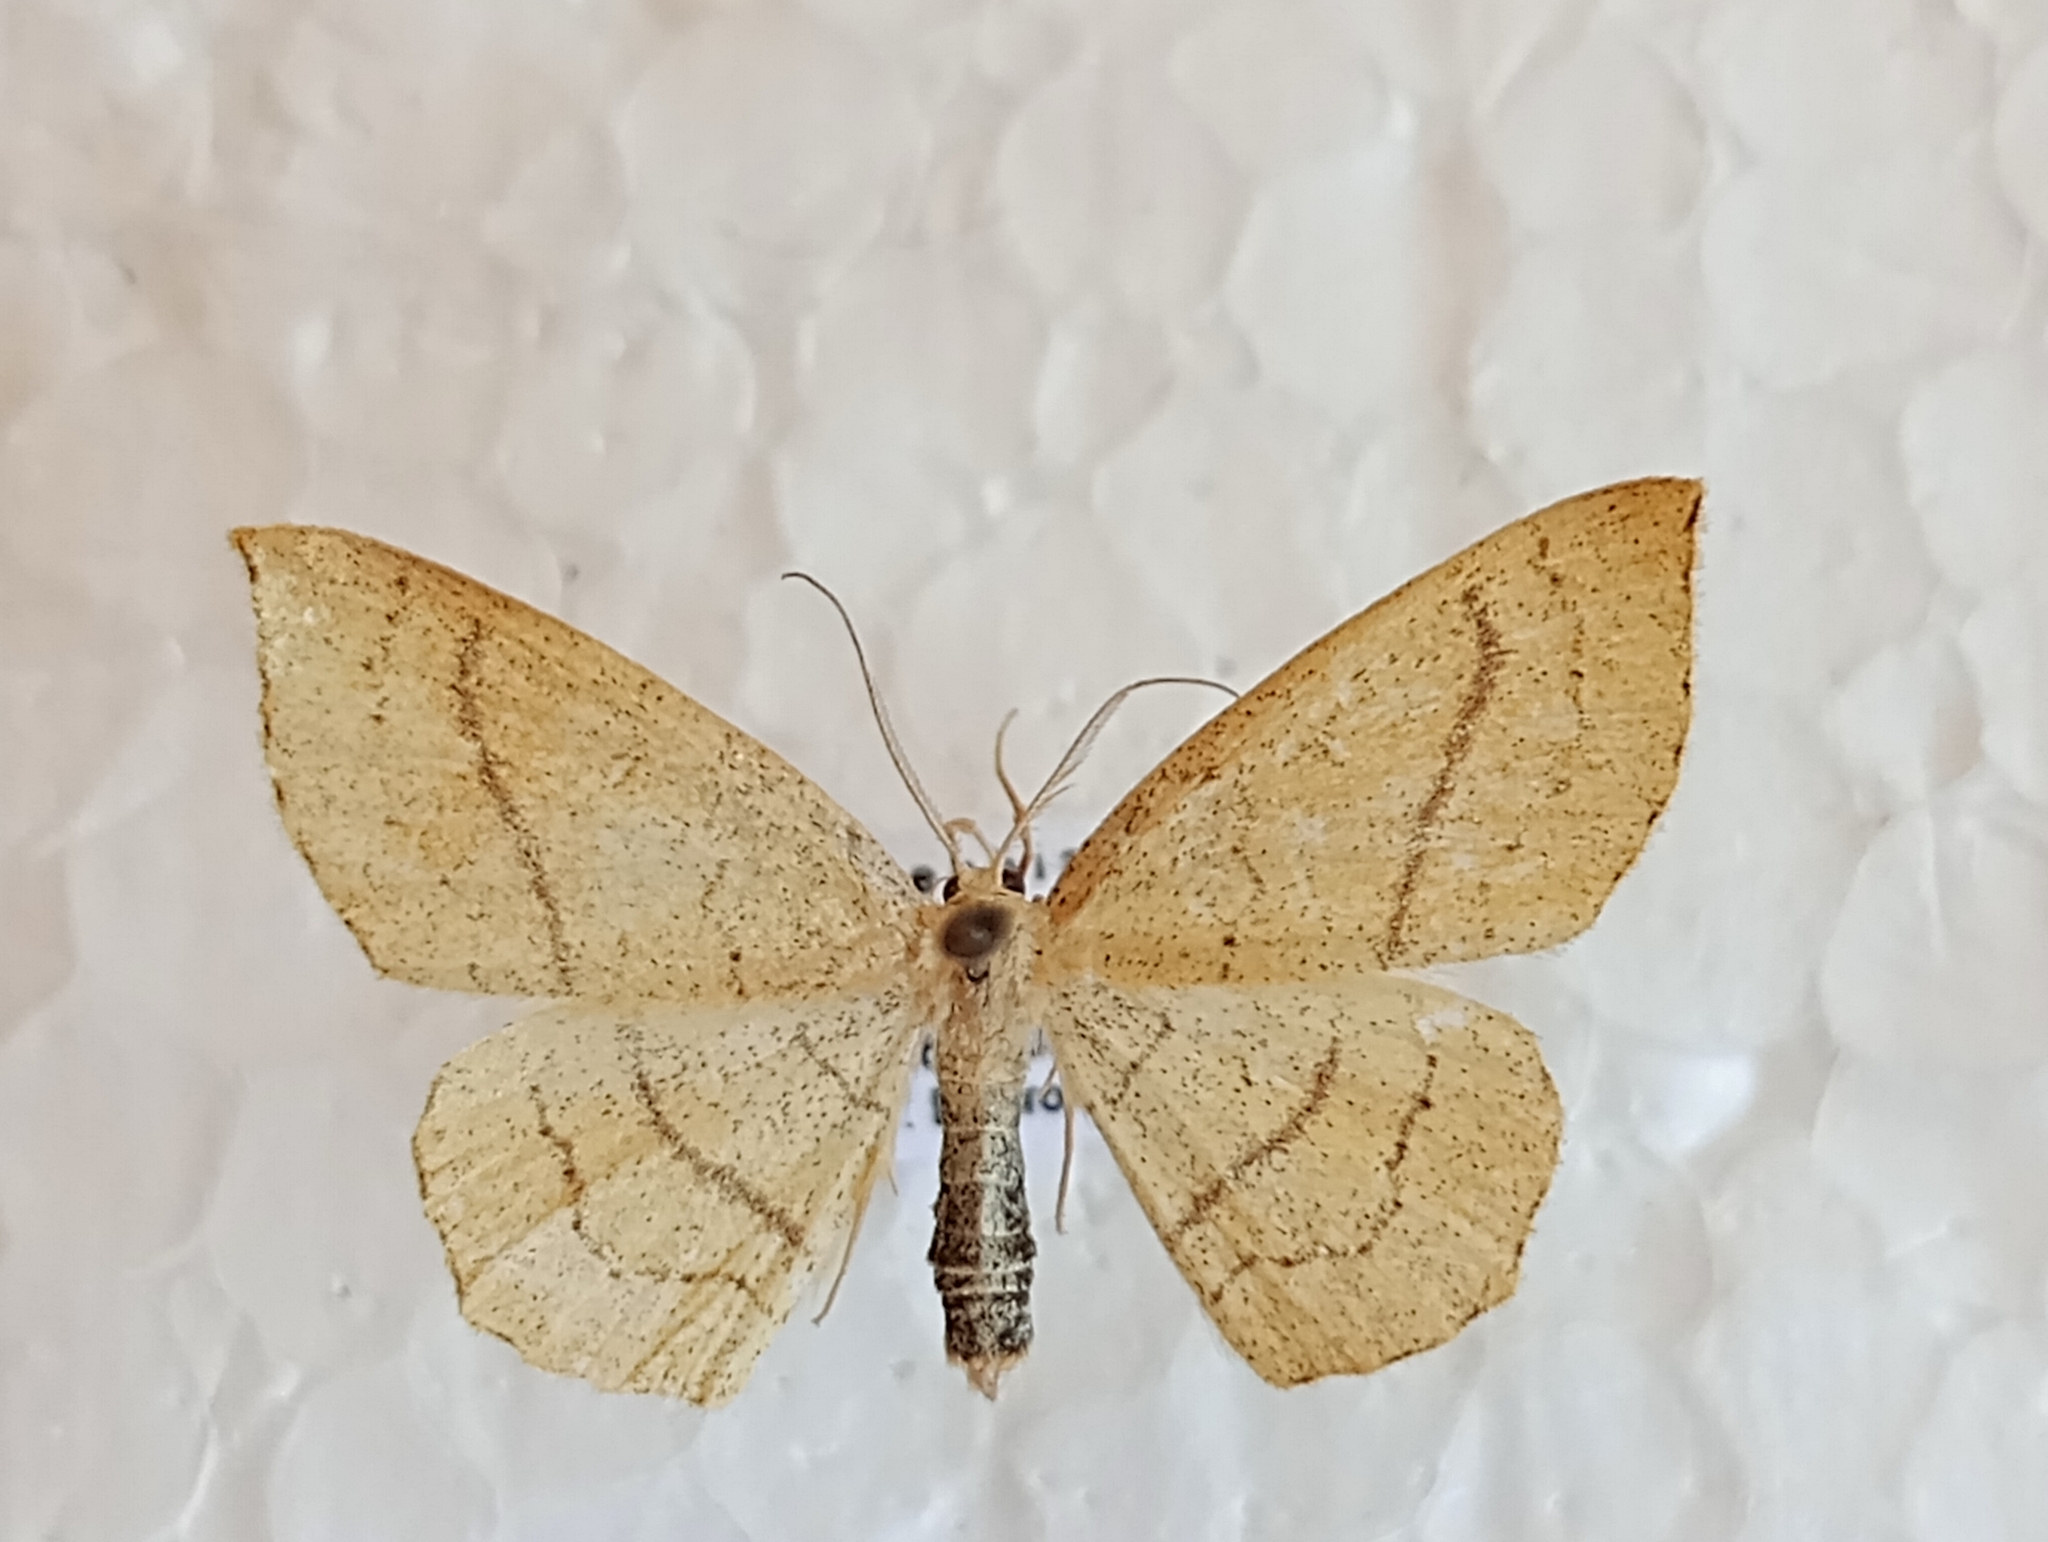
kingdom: Animalia
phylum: Arthropoda
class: Insecta
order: Lepidoptera
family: Geometridae
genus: Cyclophora
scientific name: Cyclophora linearia
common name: Clay triple-lines
